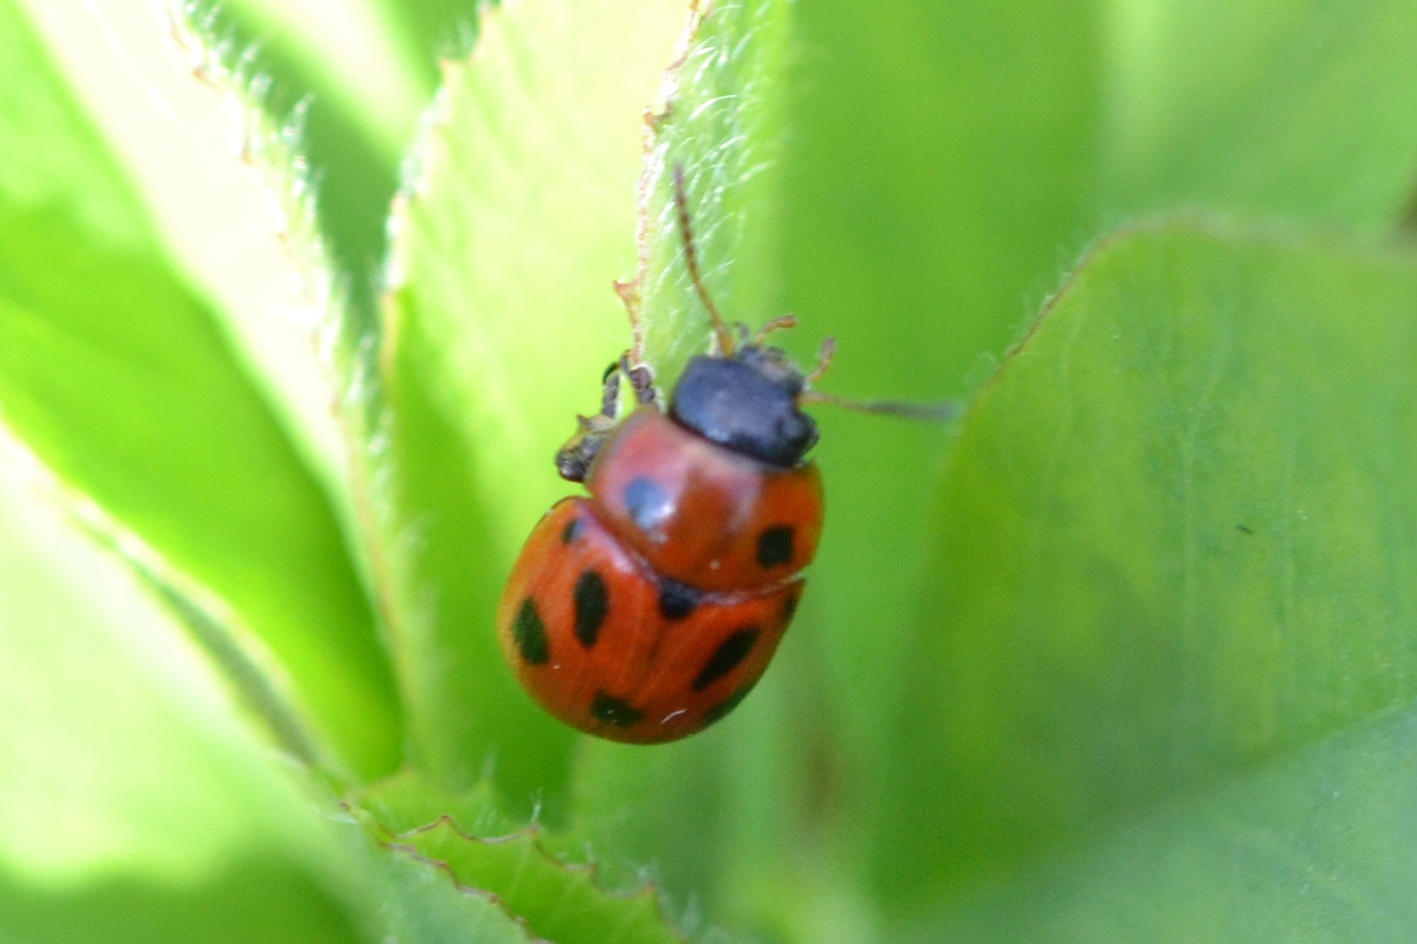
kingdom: Animalia
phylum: Arthropoda
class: Insecta
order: Coleoptera
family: Chrysomelidae
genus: Gonioctena
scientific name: Gonioctena fornicata
